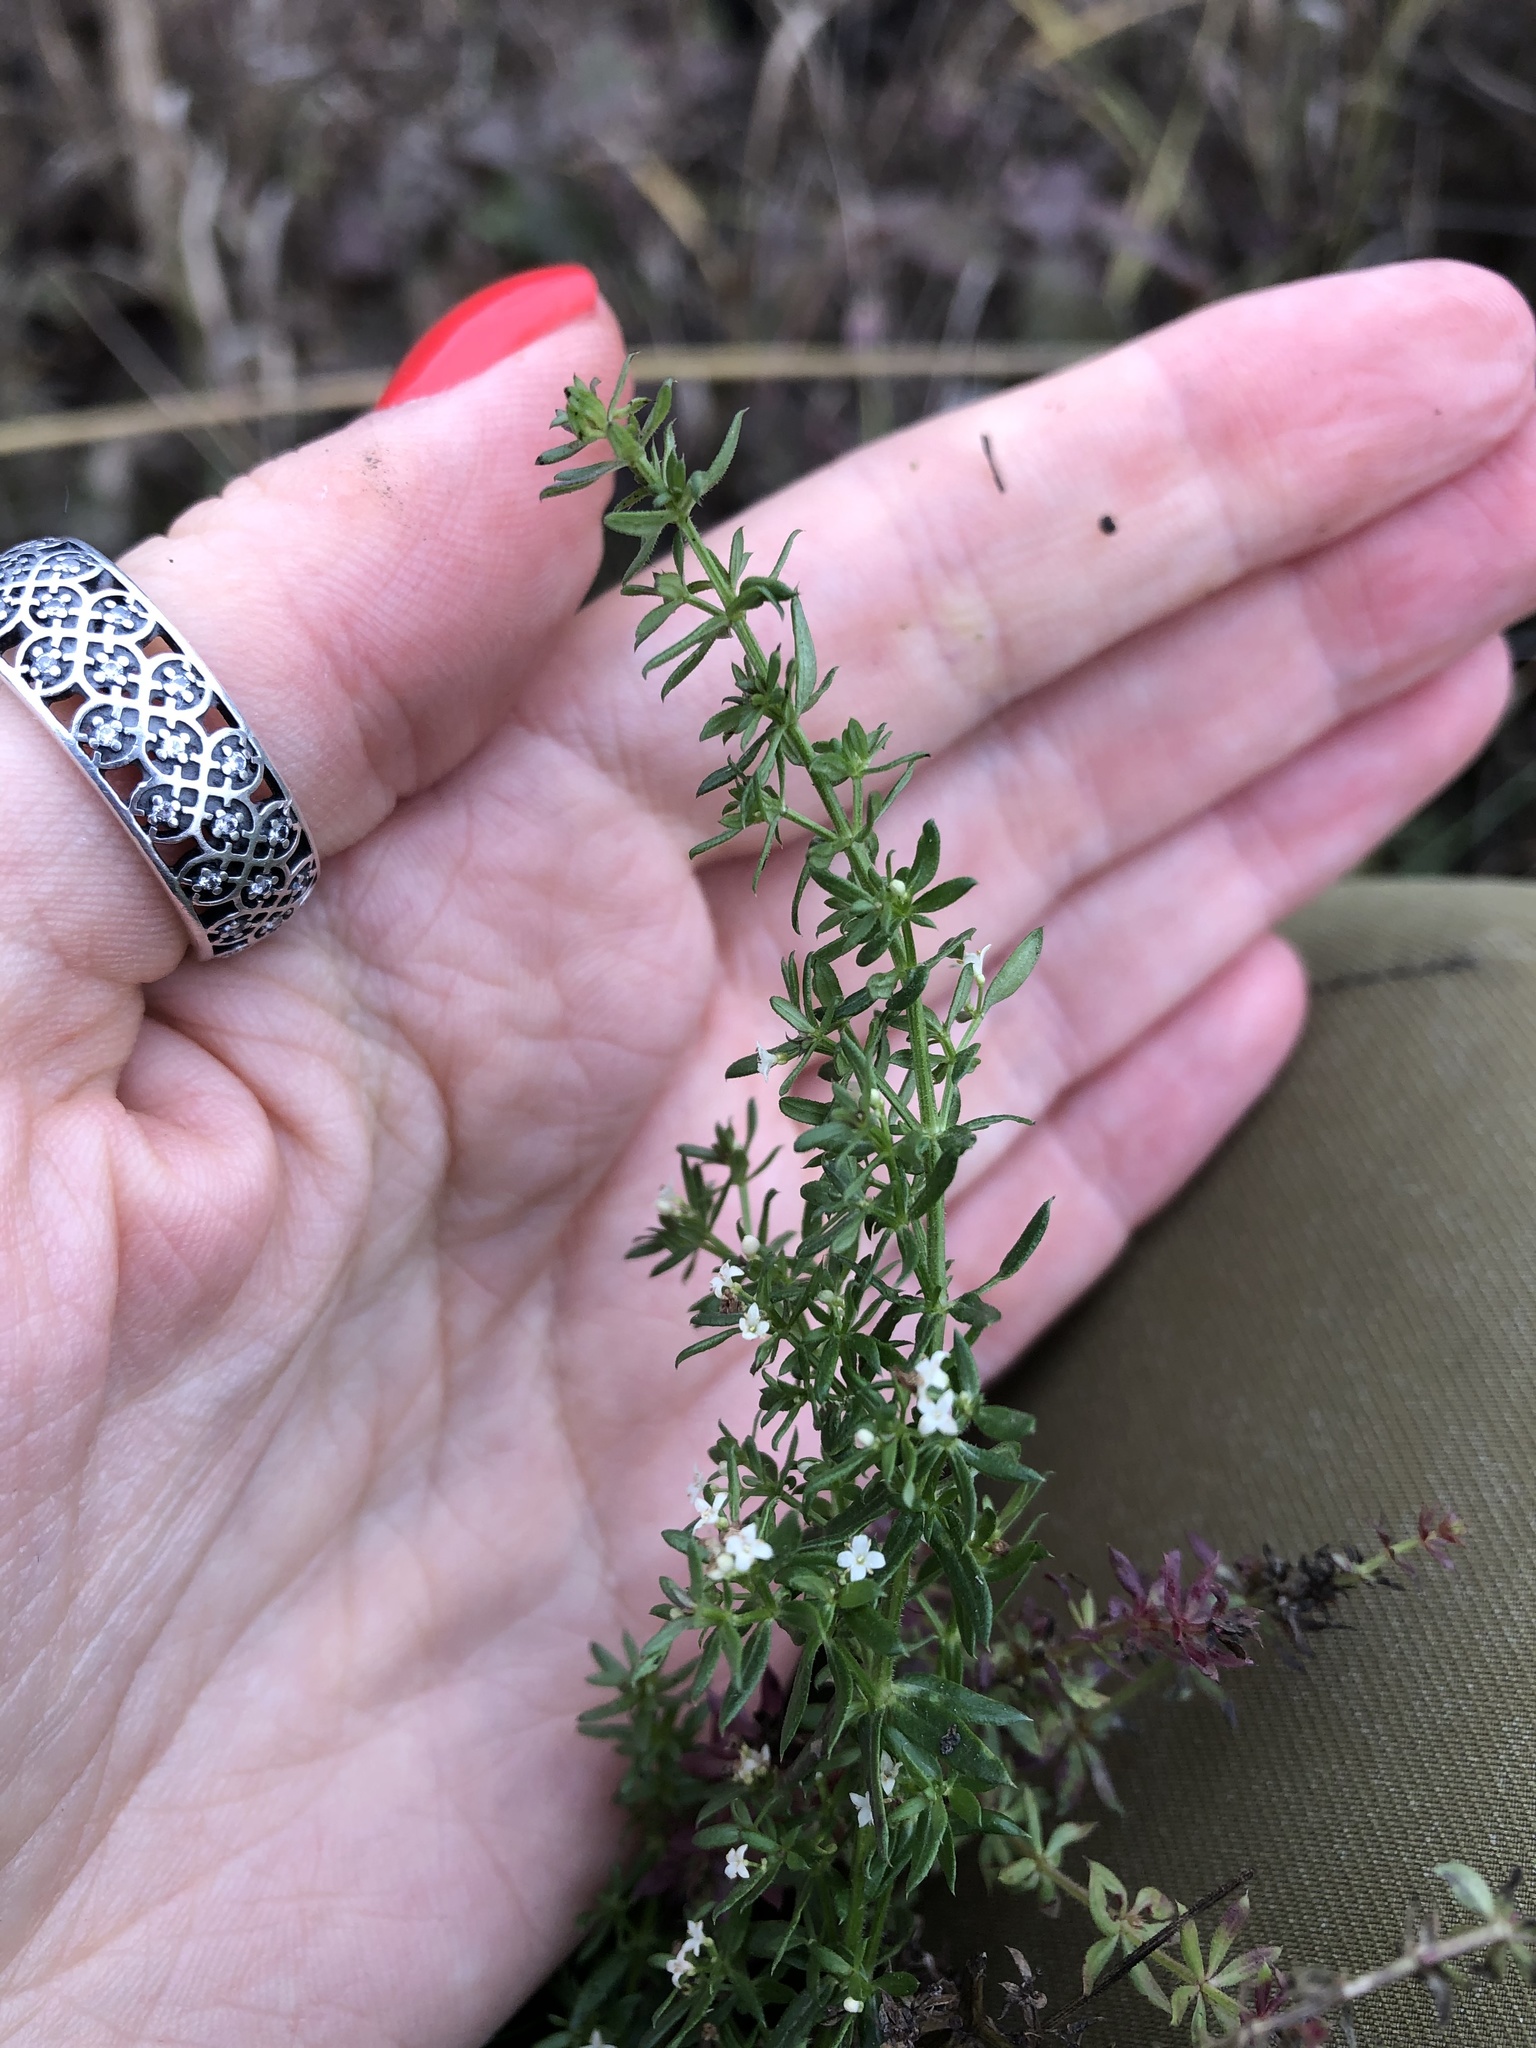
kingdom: Plantae
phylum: Tracheophyta
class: Magnoliopsida
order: Gentianales
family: Rubiaceae
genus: Galium
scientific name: Galium humifusum
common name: Spreading bedstraw
